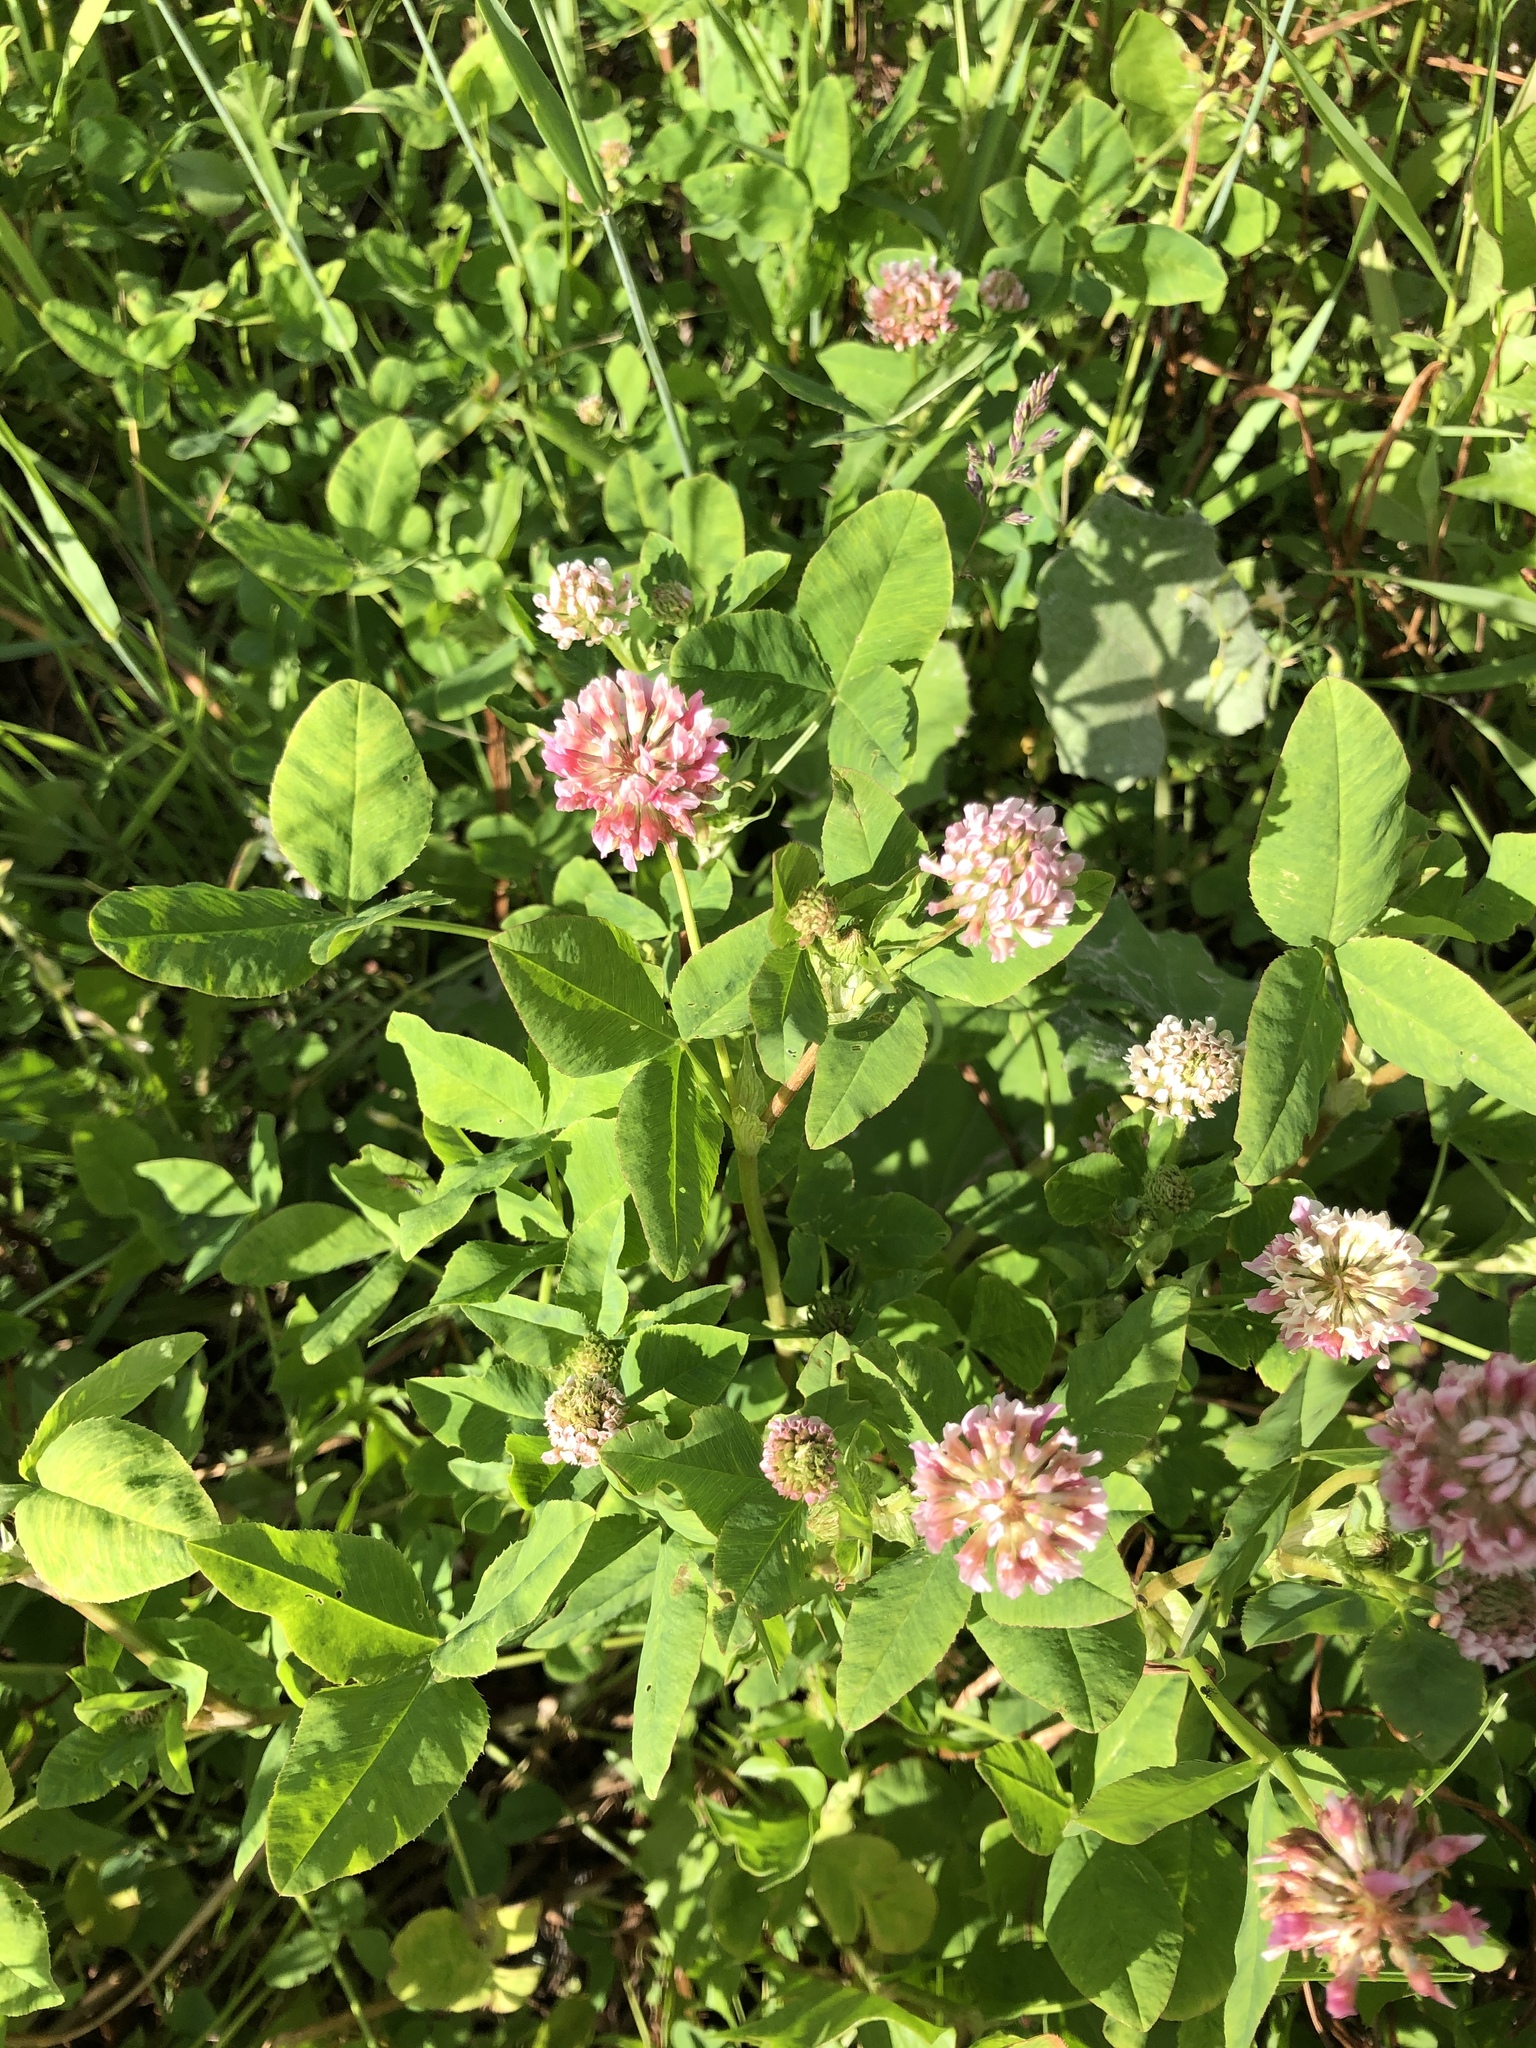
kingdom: Plantae
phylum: Tracheophyta
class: Magnoliopsida
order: Fabales
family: Fabaceae
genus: Trifolium
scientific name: Trifolium hybridum
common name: Alsike clover
